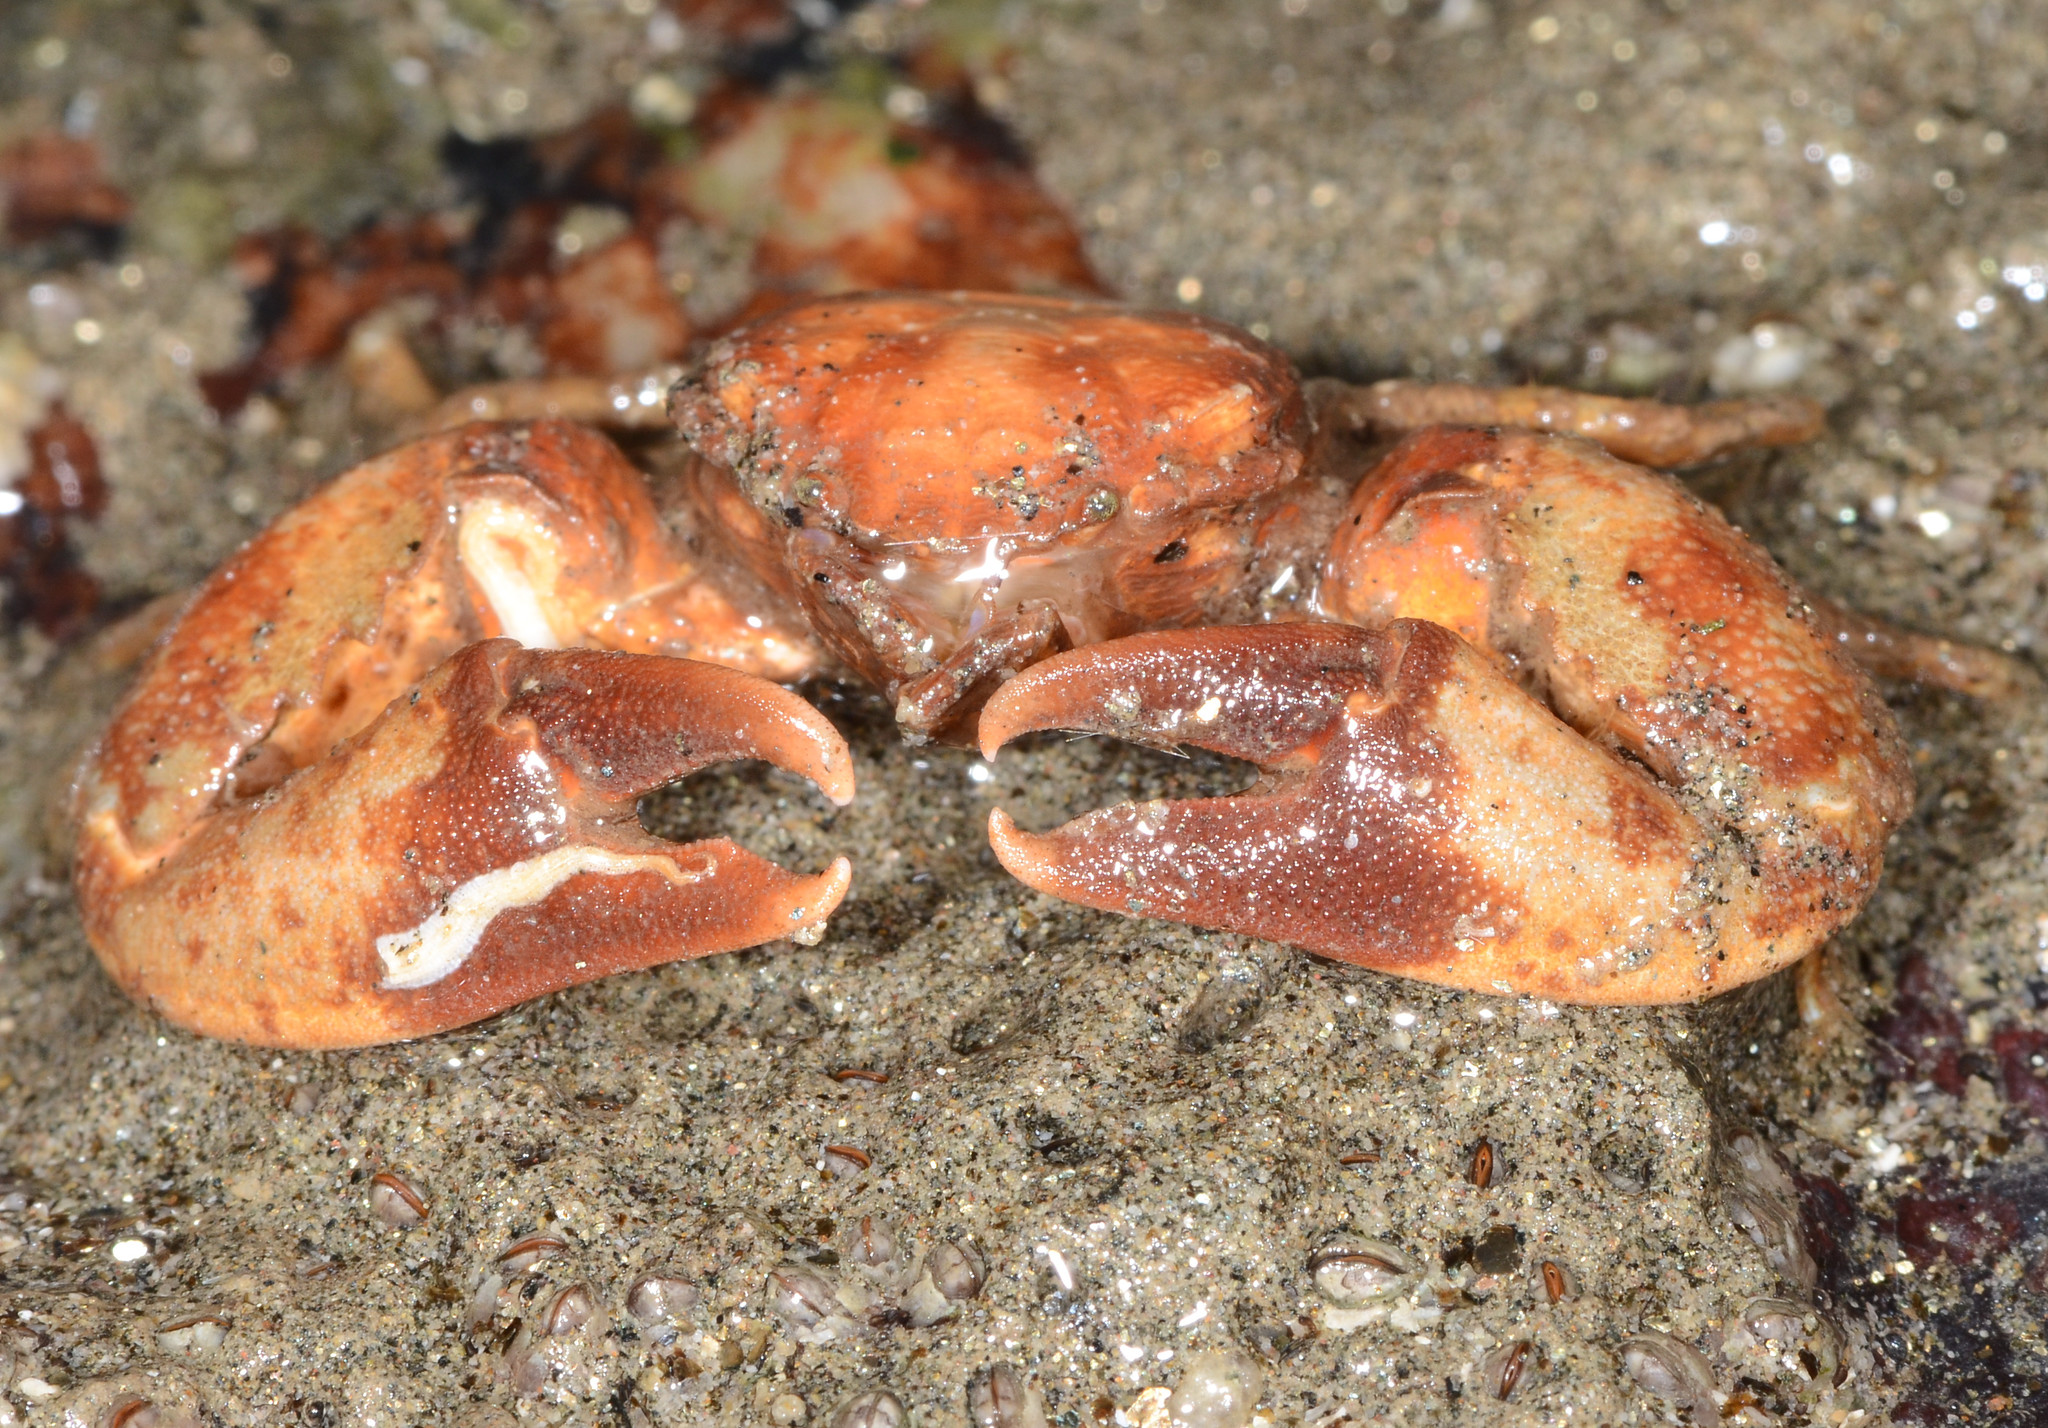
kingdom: Animalia
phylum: Arthropoda
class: Malacostraca
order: Decapoda
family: Porcellanidae
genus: Petrolisthes
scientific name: Petrolisthes crenulatus
